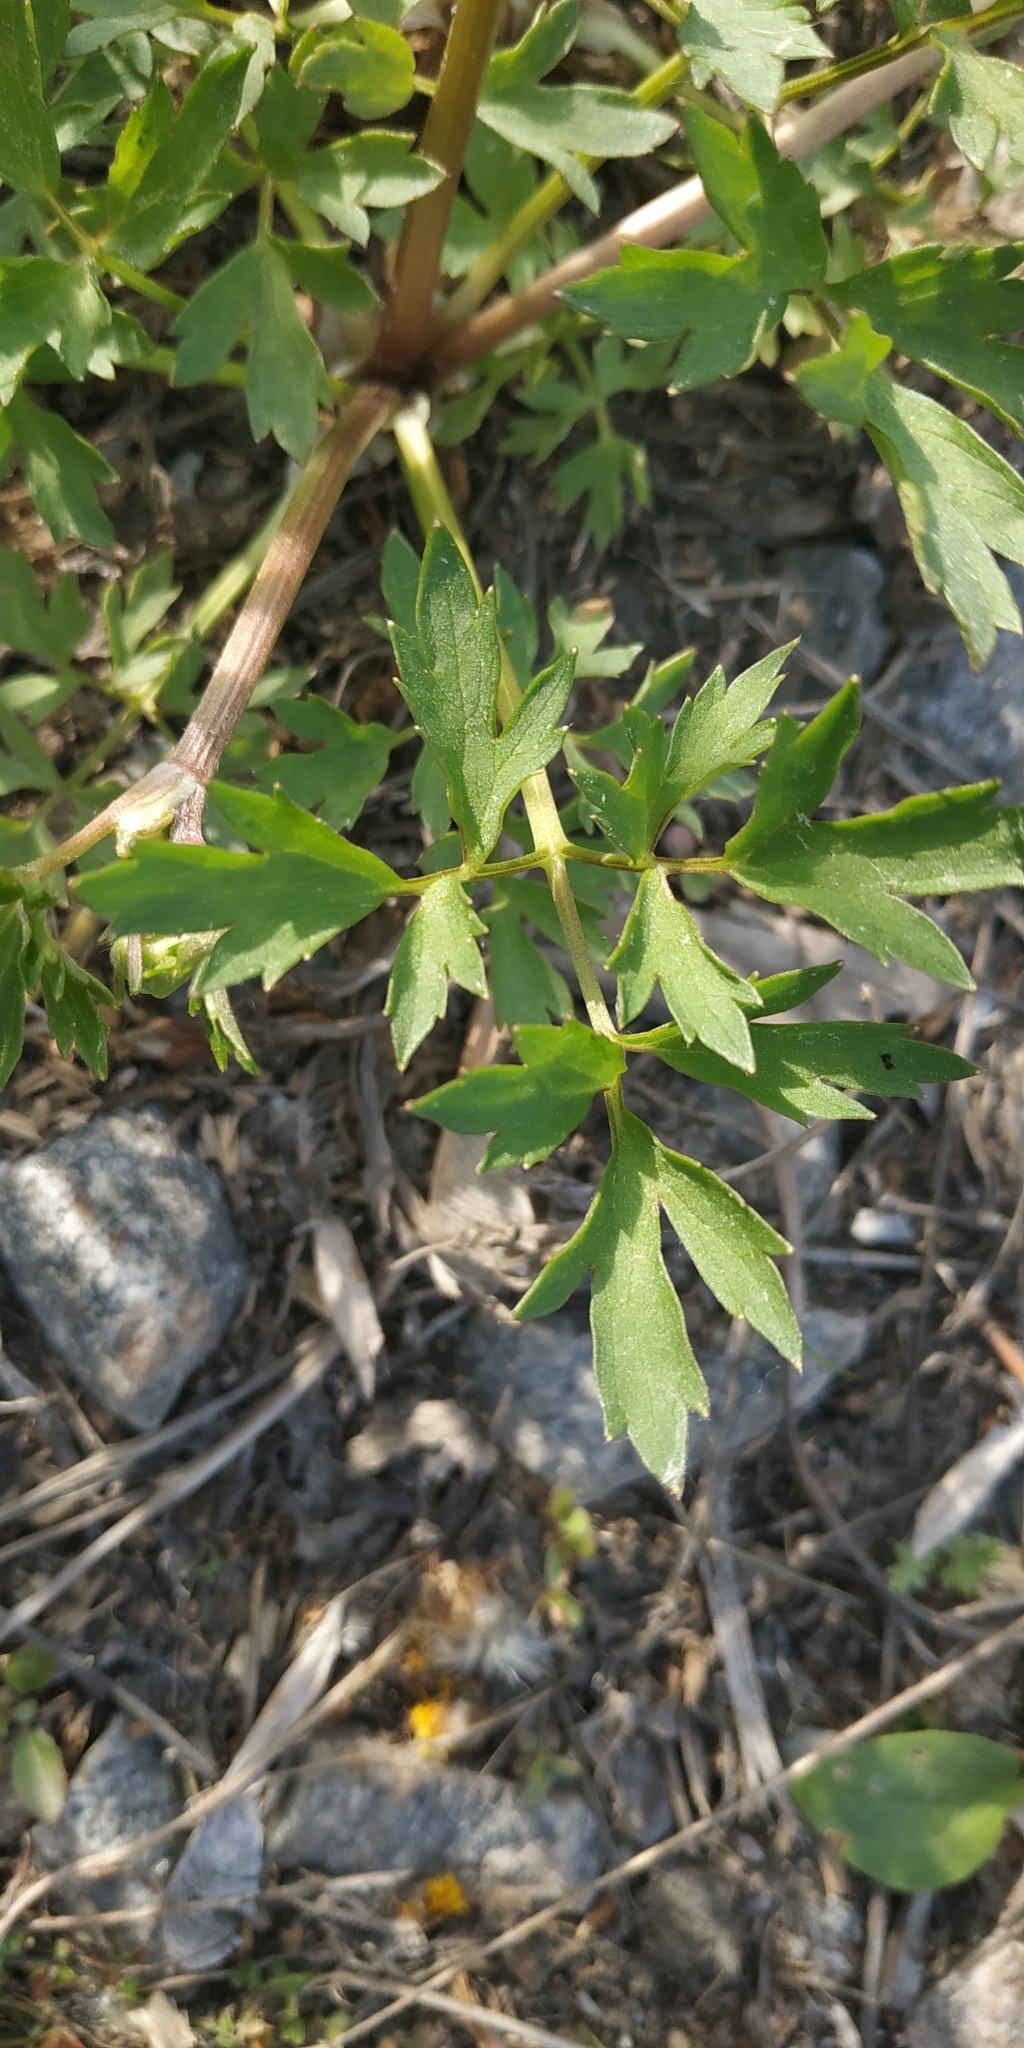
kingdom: Plantae
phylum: Tracheophyta
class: Magnoliopsida
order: Ranunculales
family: Ranunculaceae
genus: Ranunculus
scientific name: Ranunculus repens
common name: Creeping buttercup
